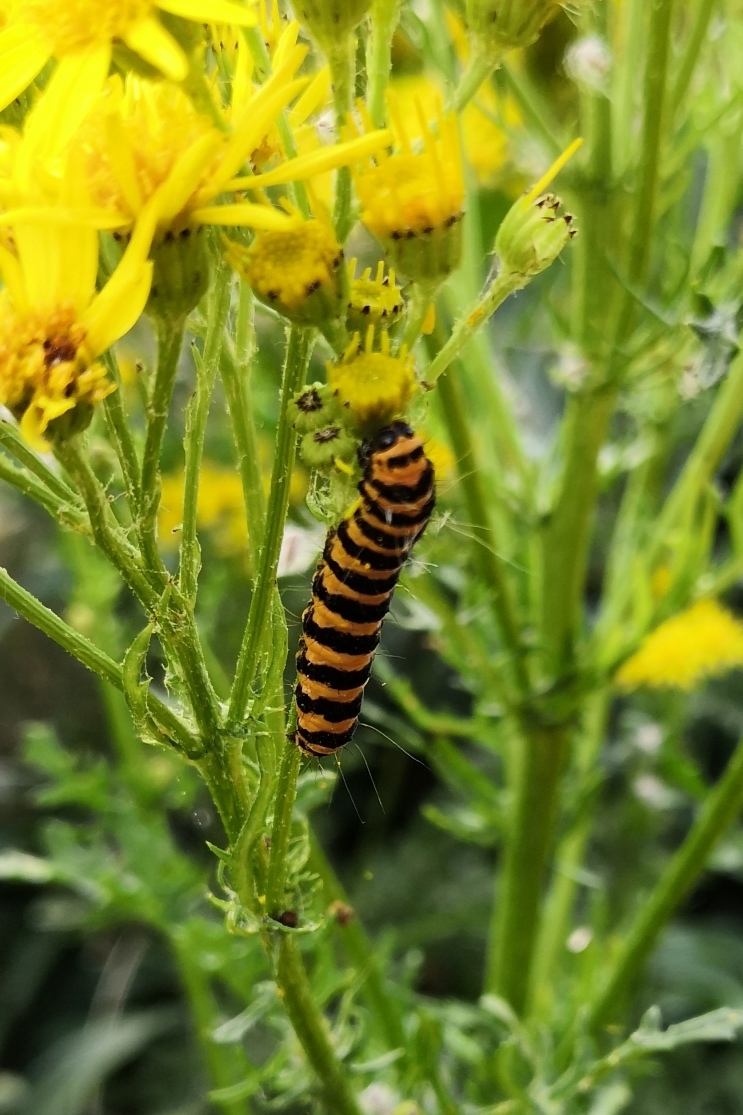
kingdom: Animalia
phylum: Arthropoda
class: Insecta
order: Lepidoptera
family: Erebidae
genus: Tyria
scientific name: Tyria jacobaeae
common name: Cinnabar
